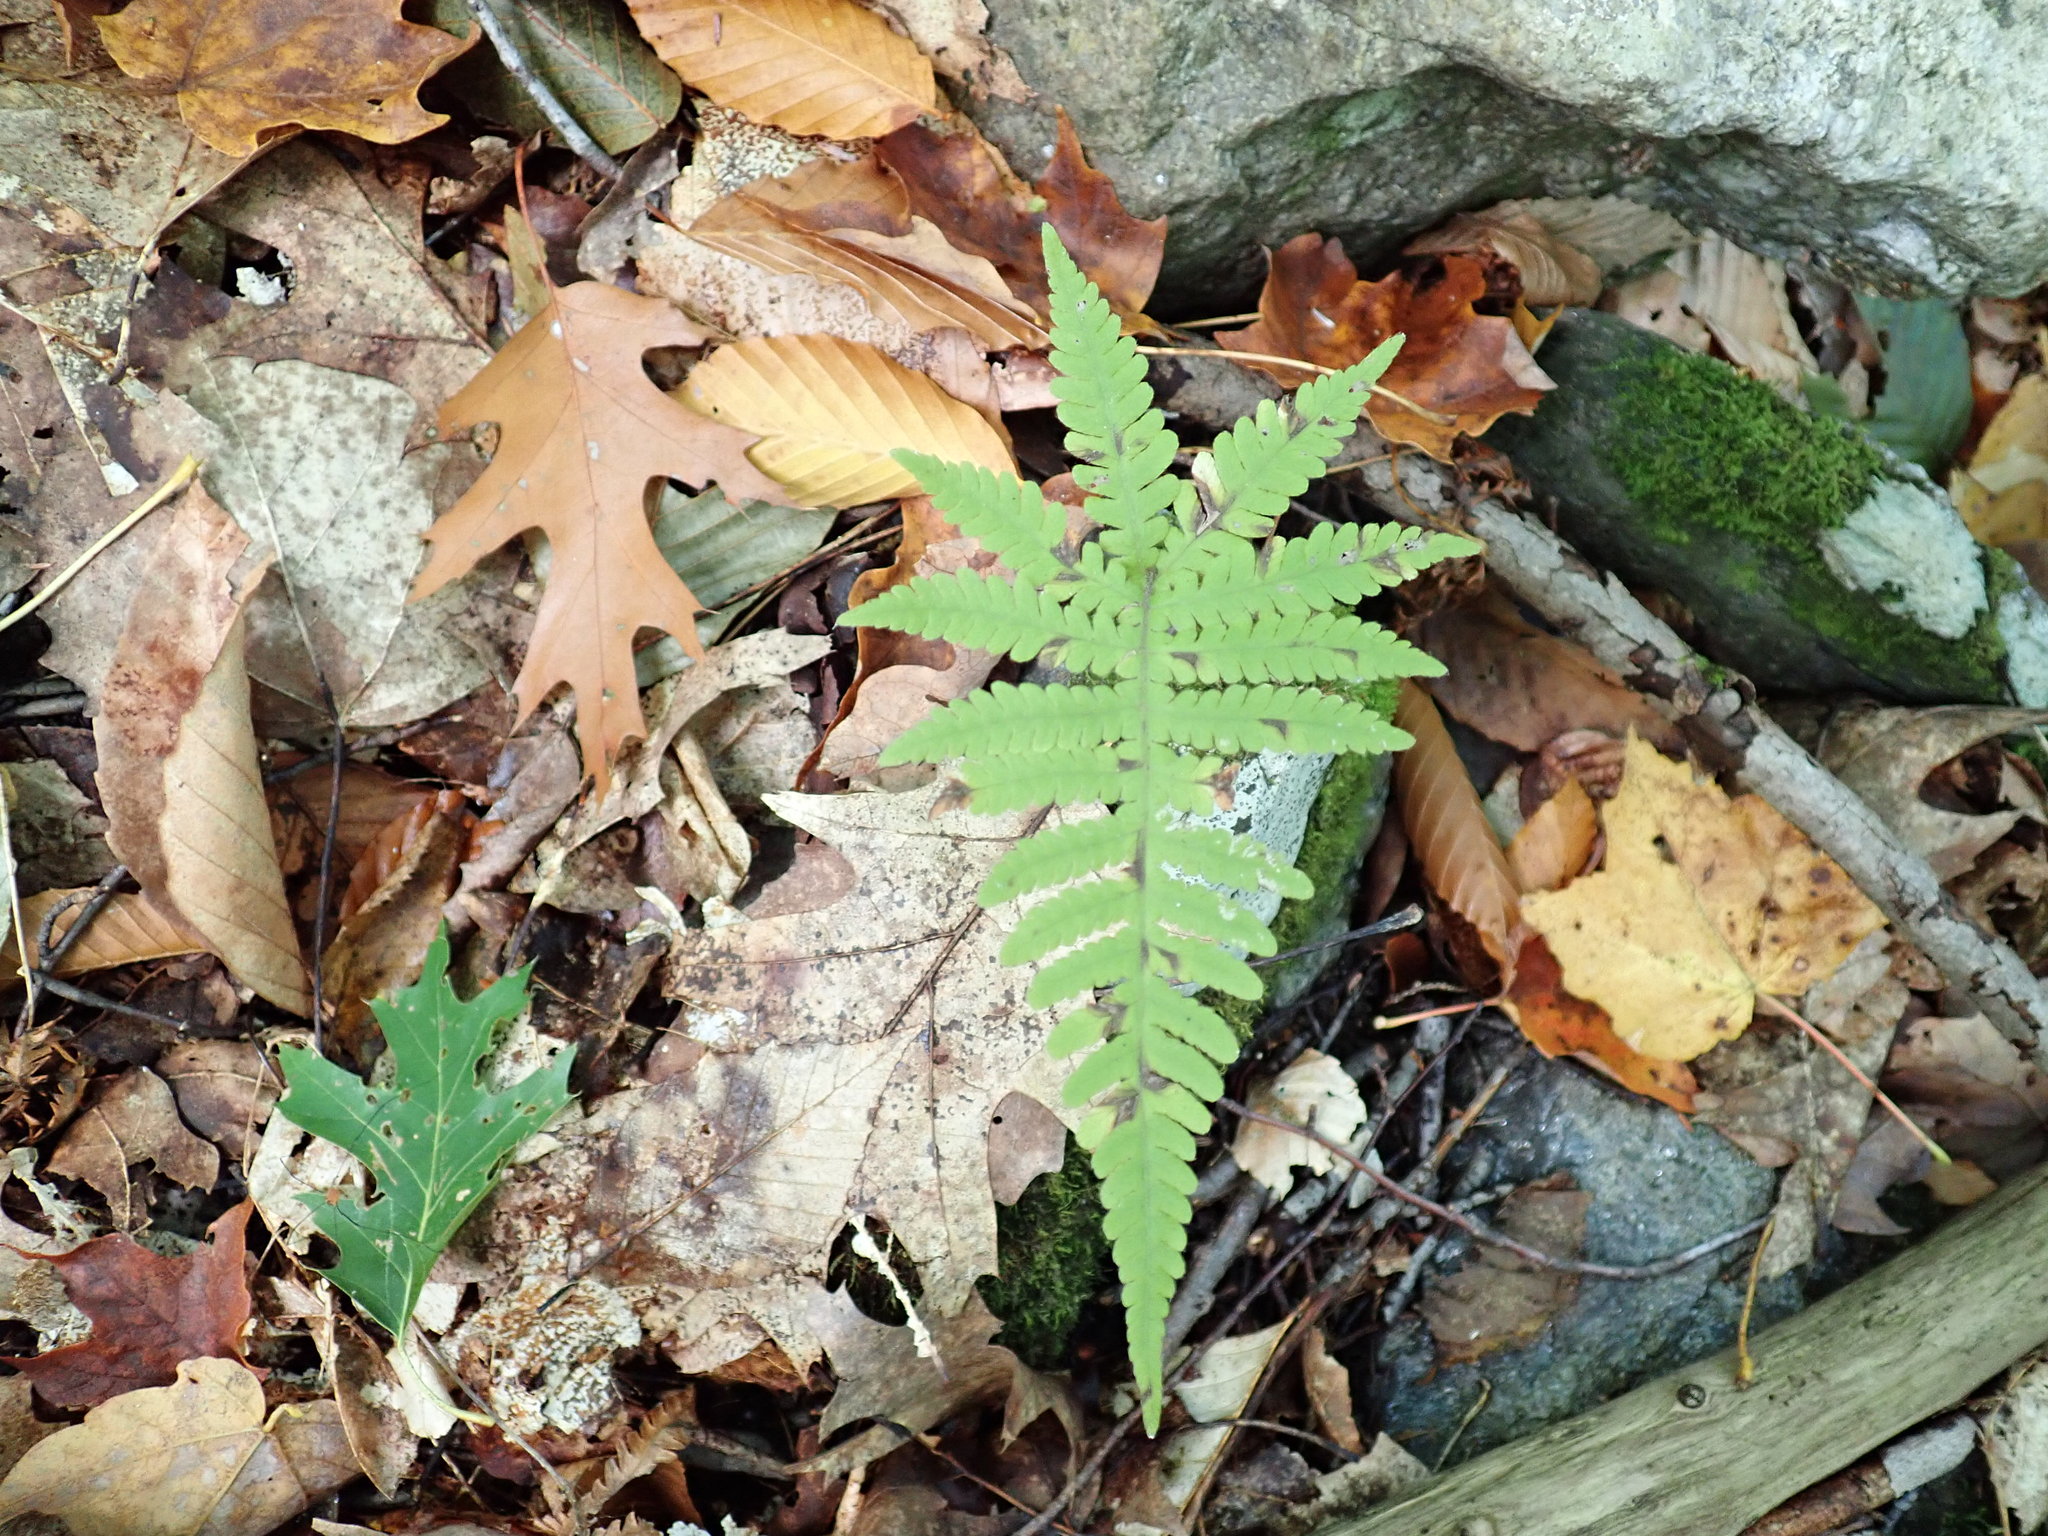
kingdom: Plantae
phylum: Tracheophyta
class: Polypodiopsida
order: Polypodiales
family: Thelypteridaceae
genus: Phegopteris
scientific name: Phegopteris connectilis
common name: Beech fern
